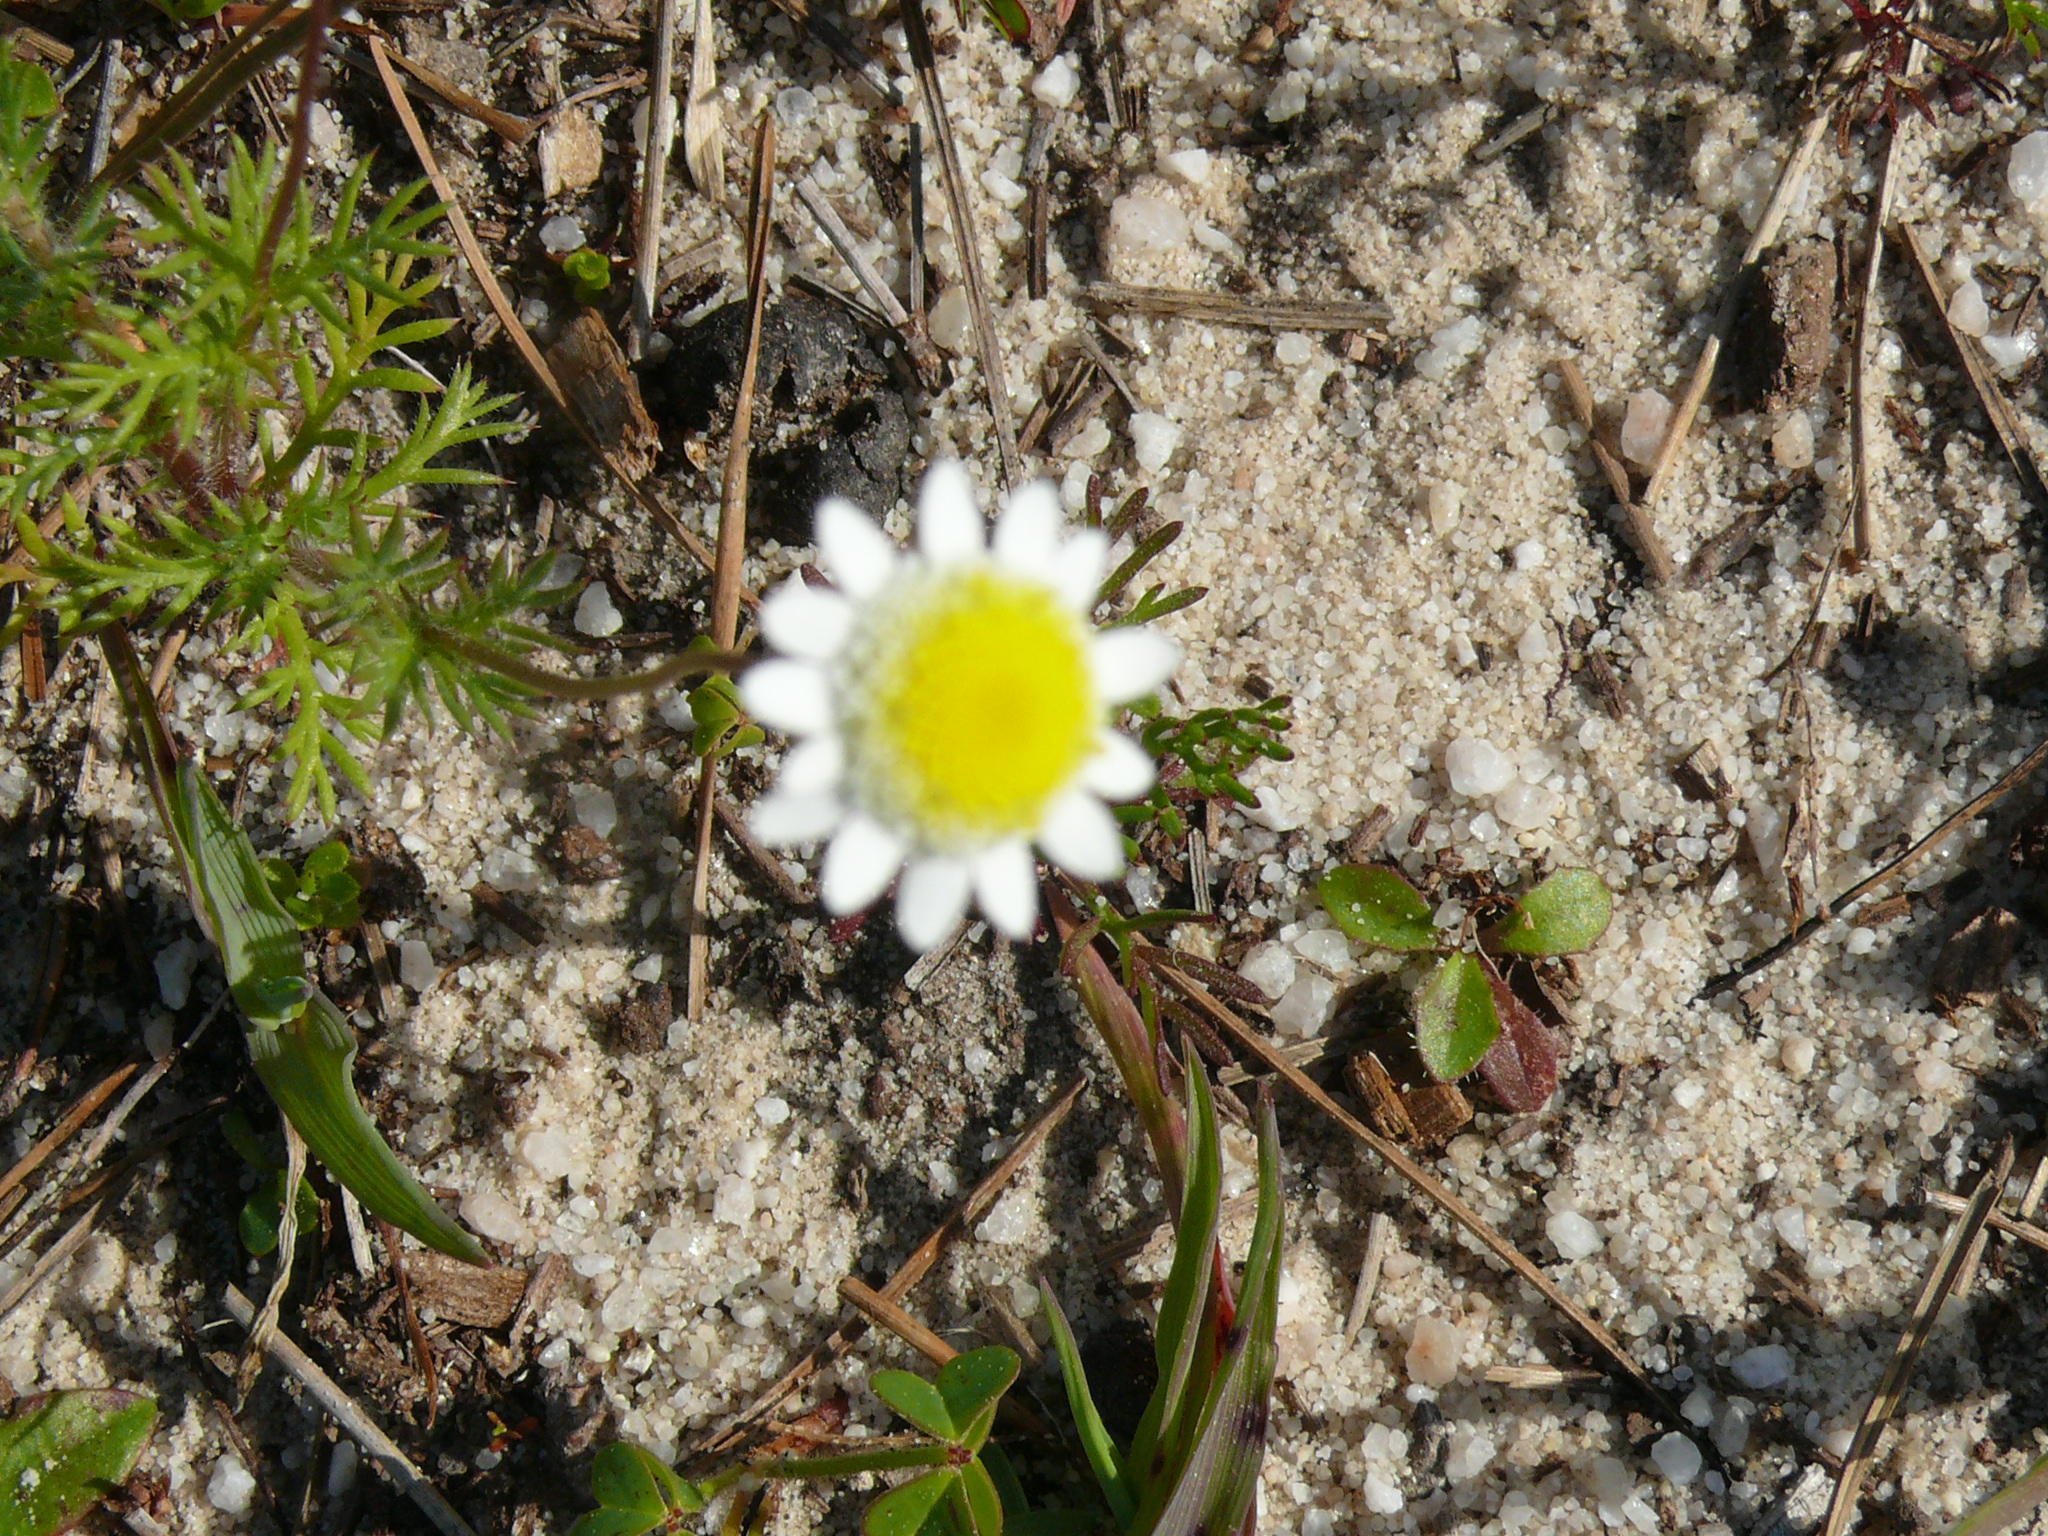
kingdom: Plantae
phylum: Tracheophyta
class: Magnoliopsida
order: Asterales
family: Asteraceae
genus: Cotula
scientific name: Cotula turbinata
